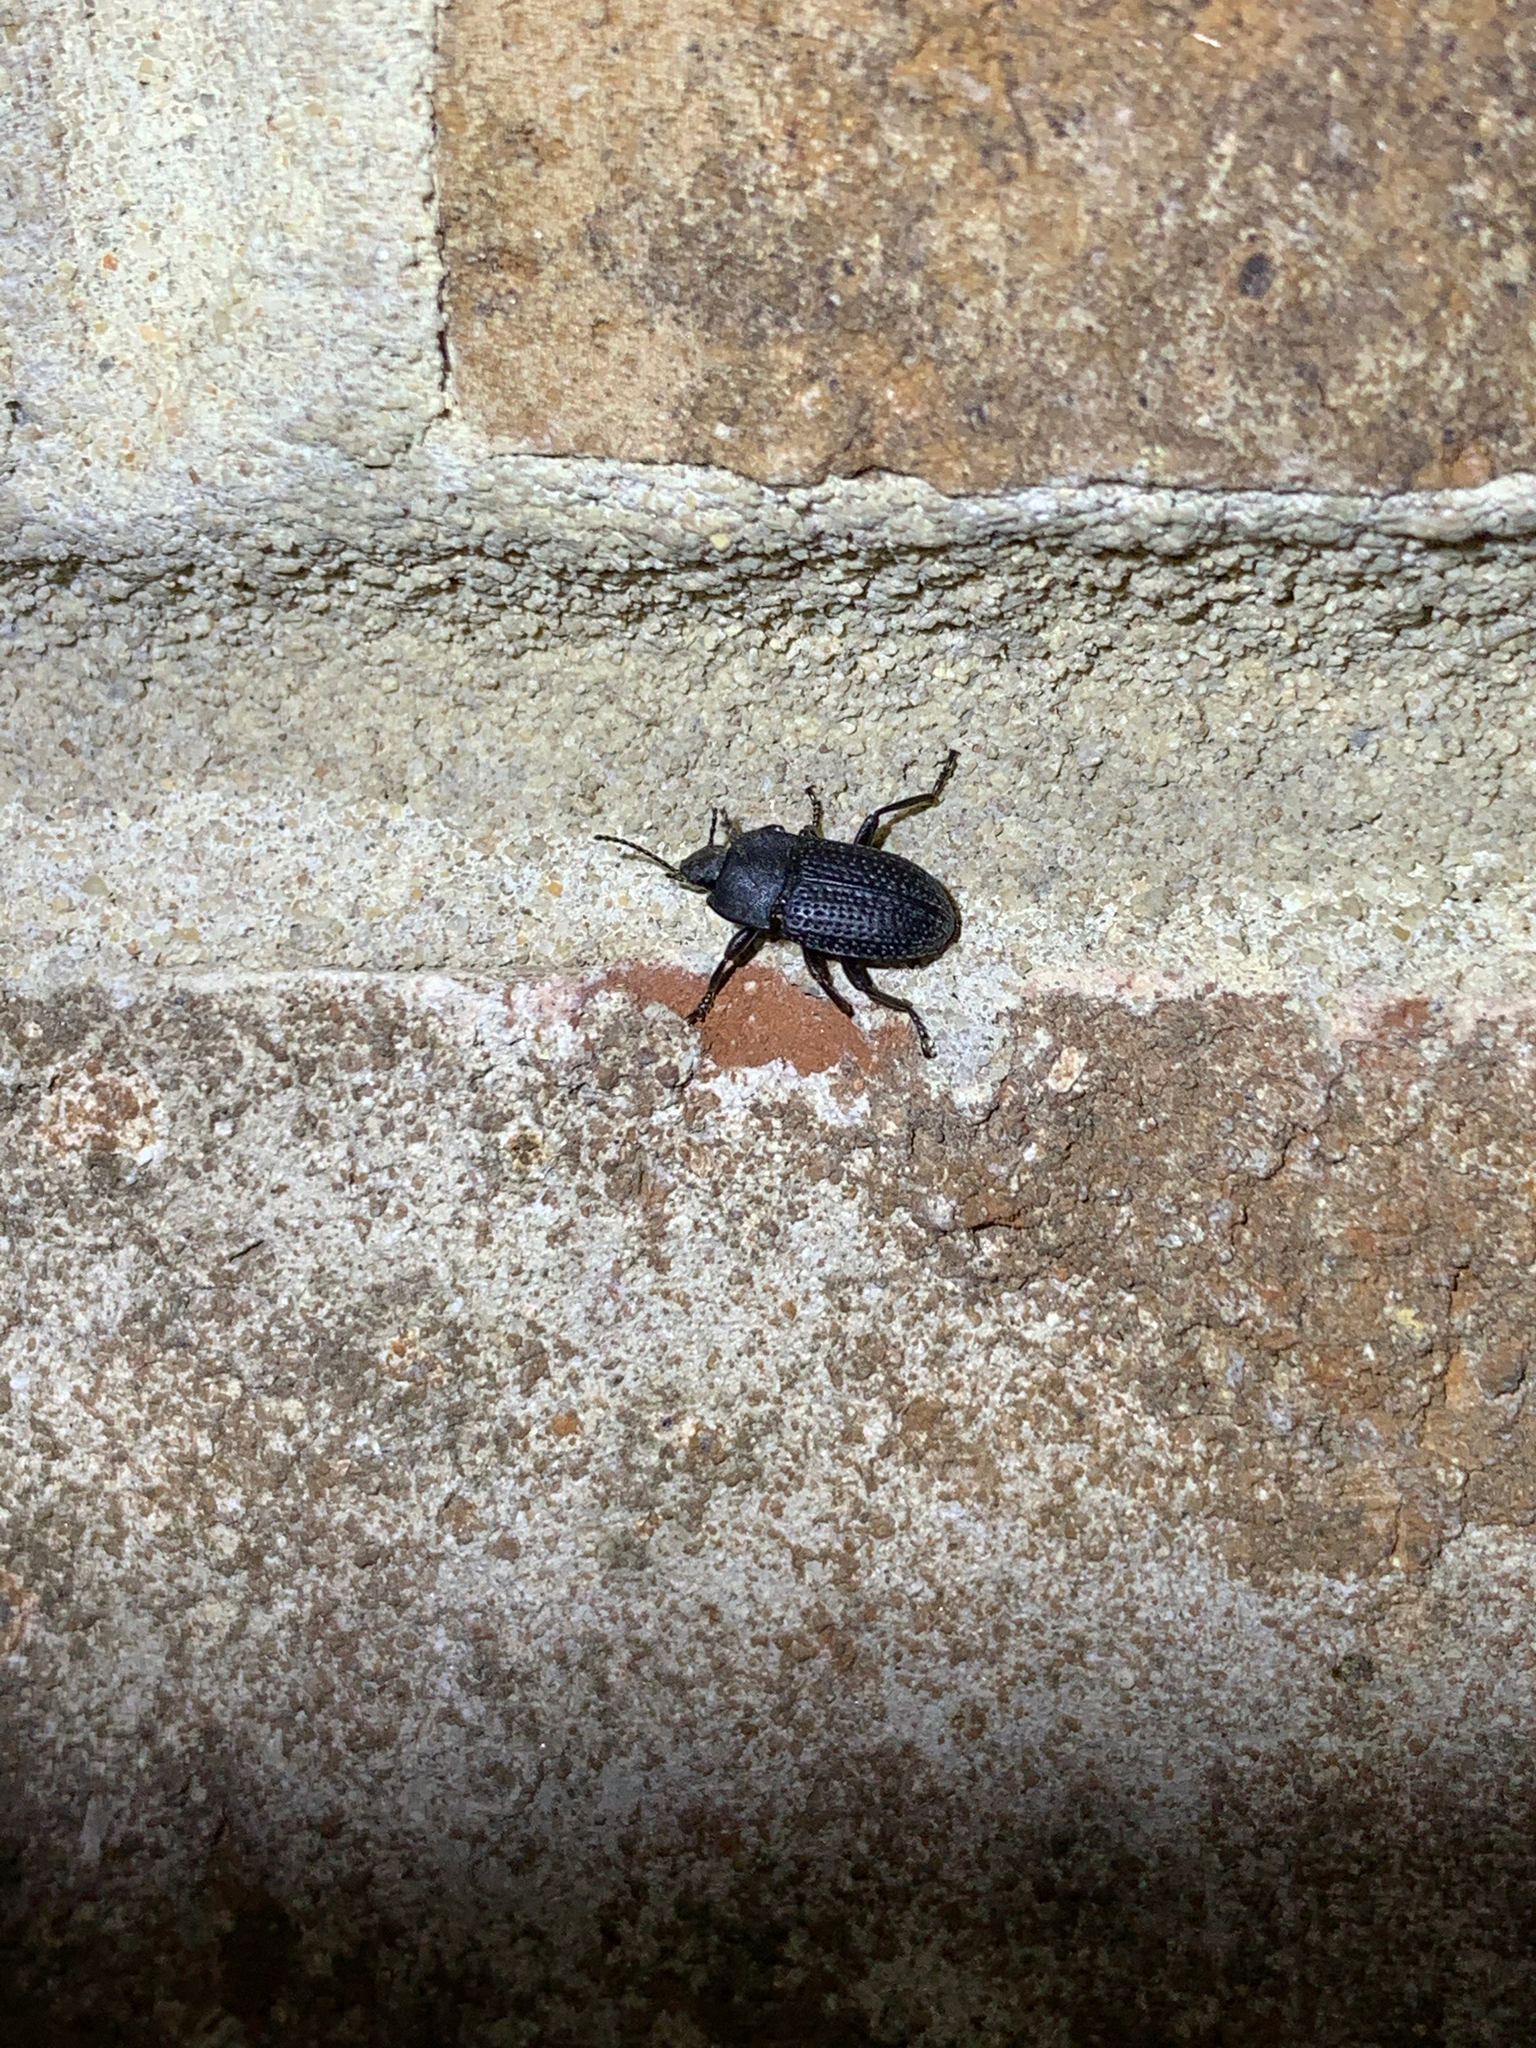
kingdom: Animalia
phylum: Arthropoda
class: Insecta
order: Coleoptera
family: Tenebrionidae
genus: Asiopus
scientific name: Asiopus
